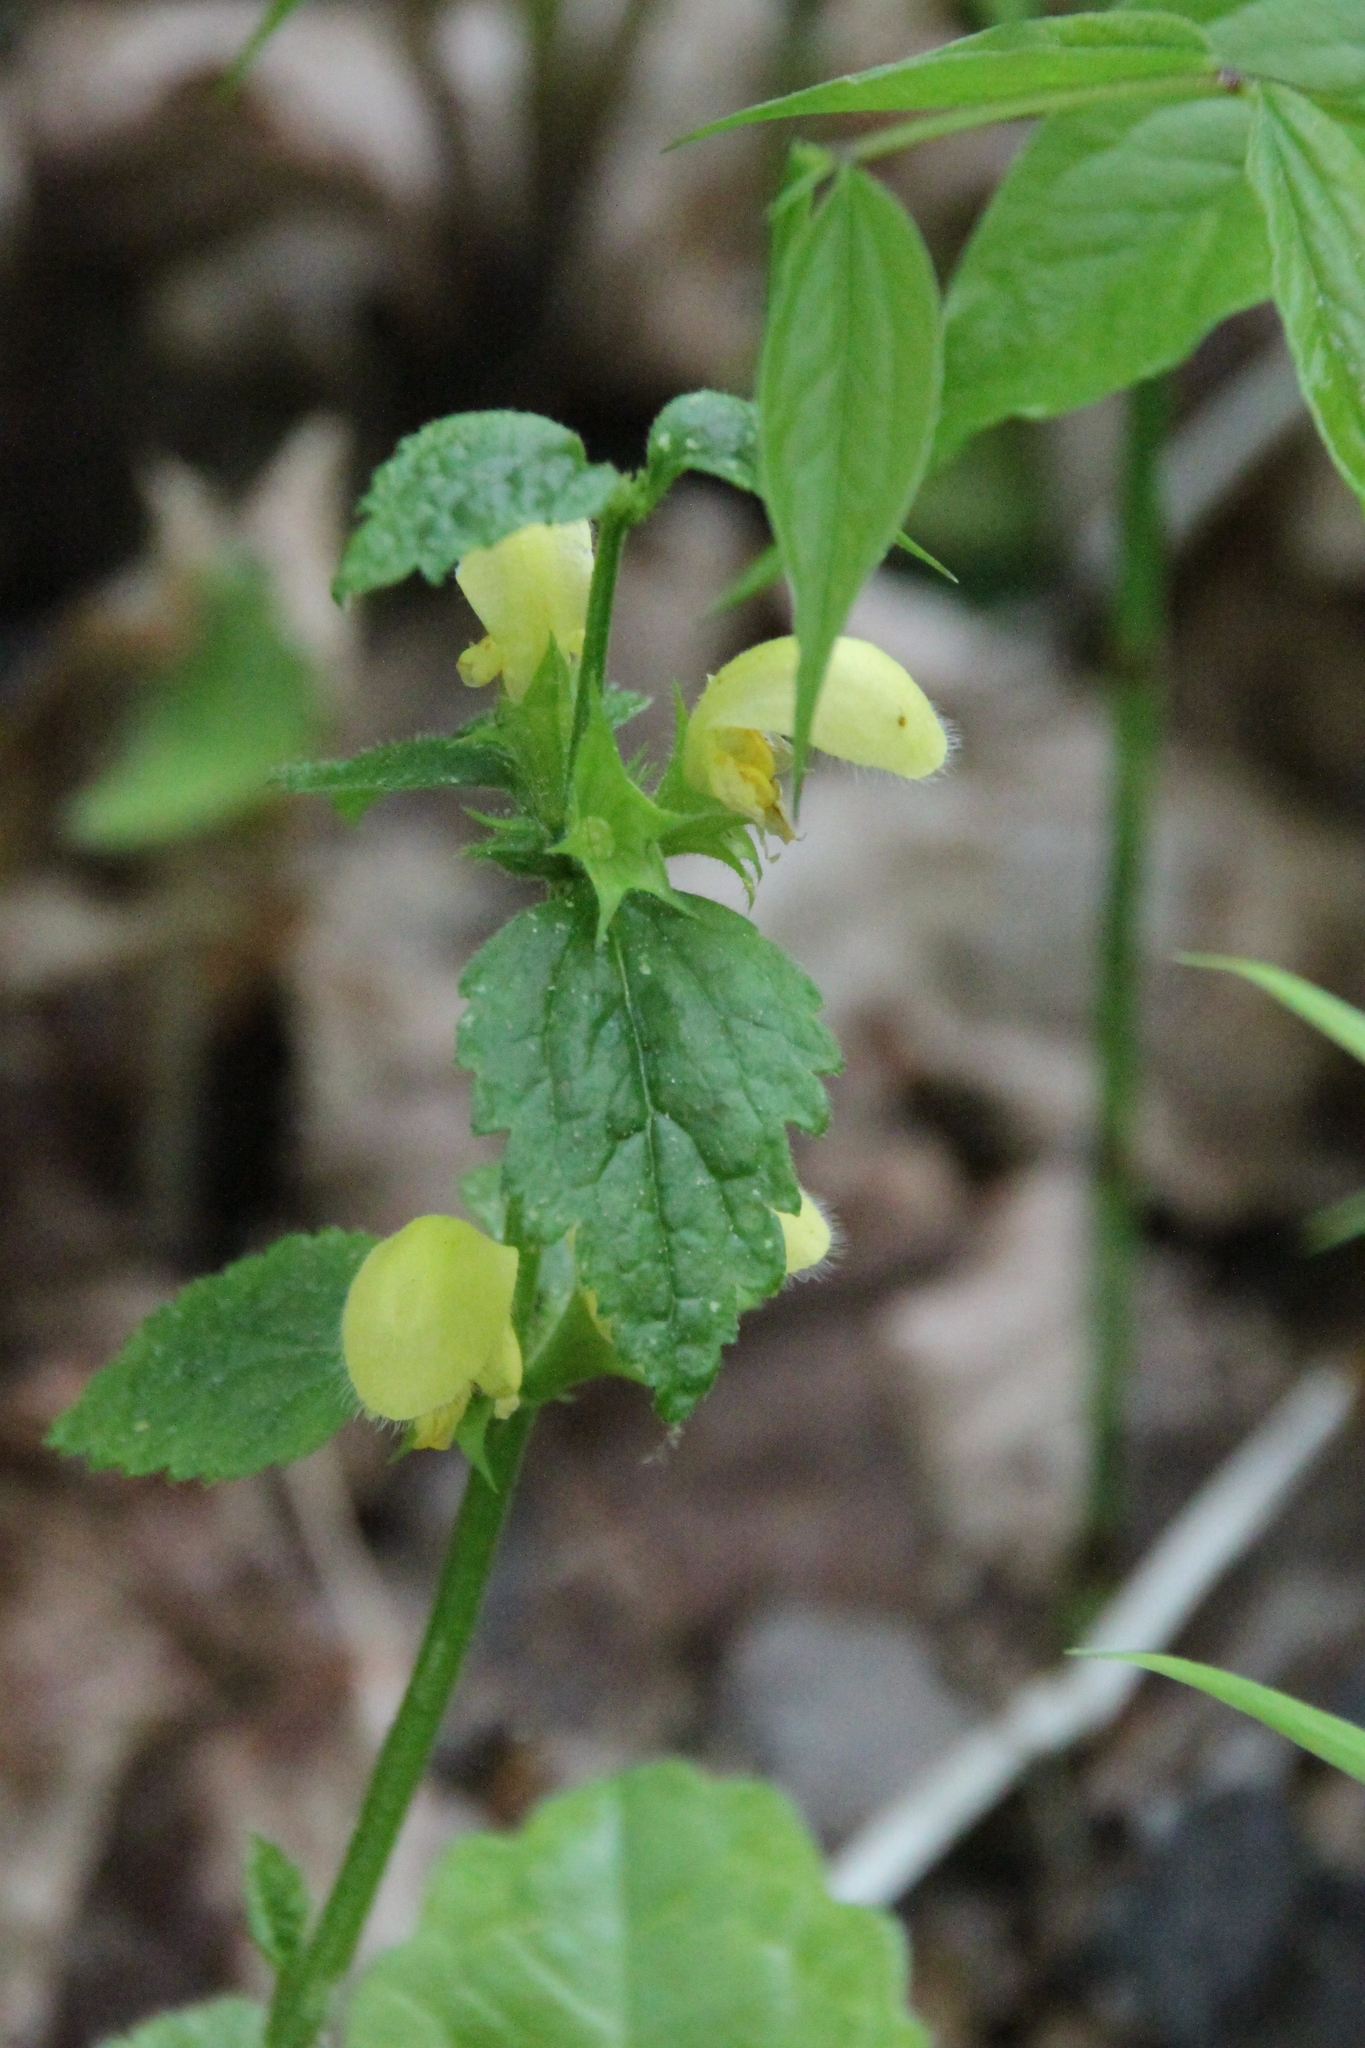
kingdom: Plantae
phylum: Tracheophyta
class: Magnoliopsida
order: Lamiales
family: Lamiaceae
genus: Lamium
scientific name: Lamium galeobdolon
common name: Yellow archangel
